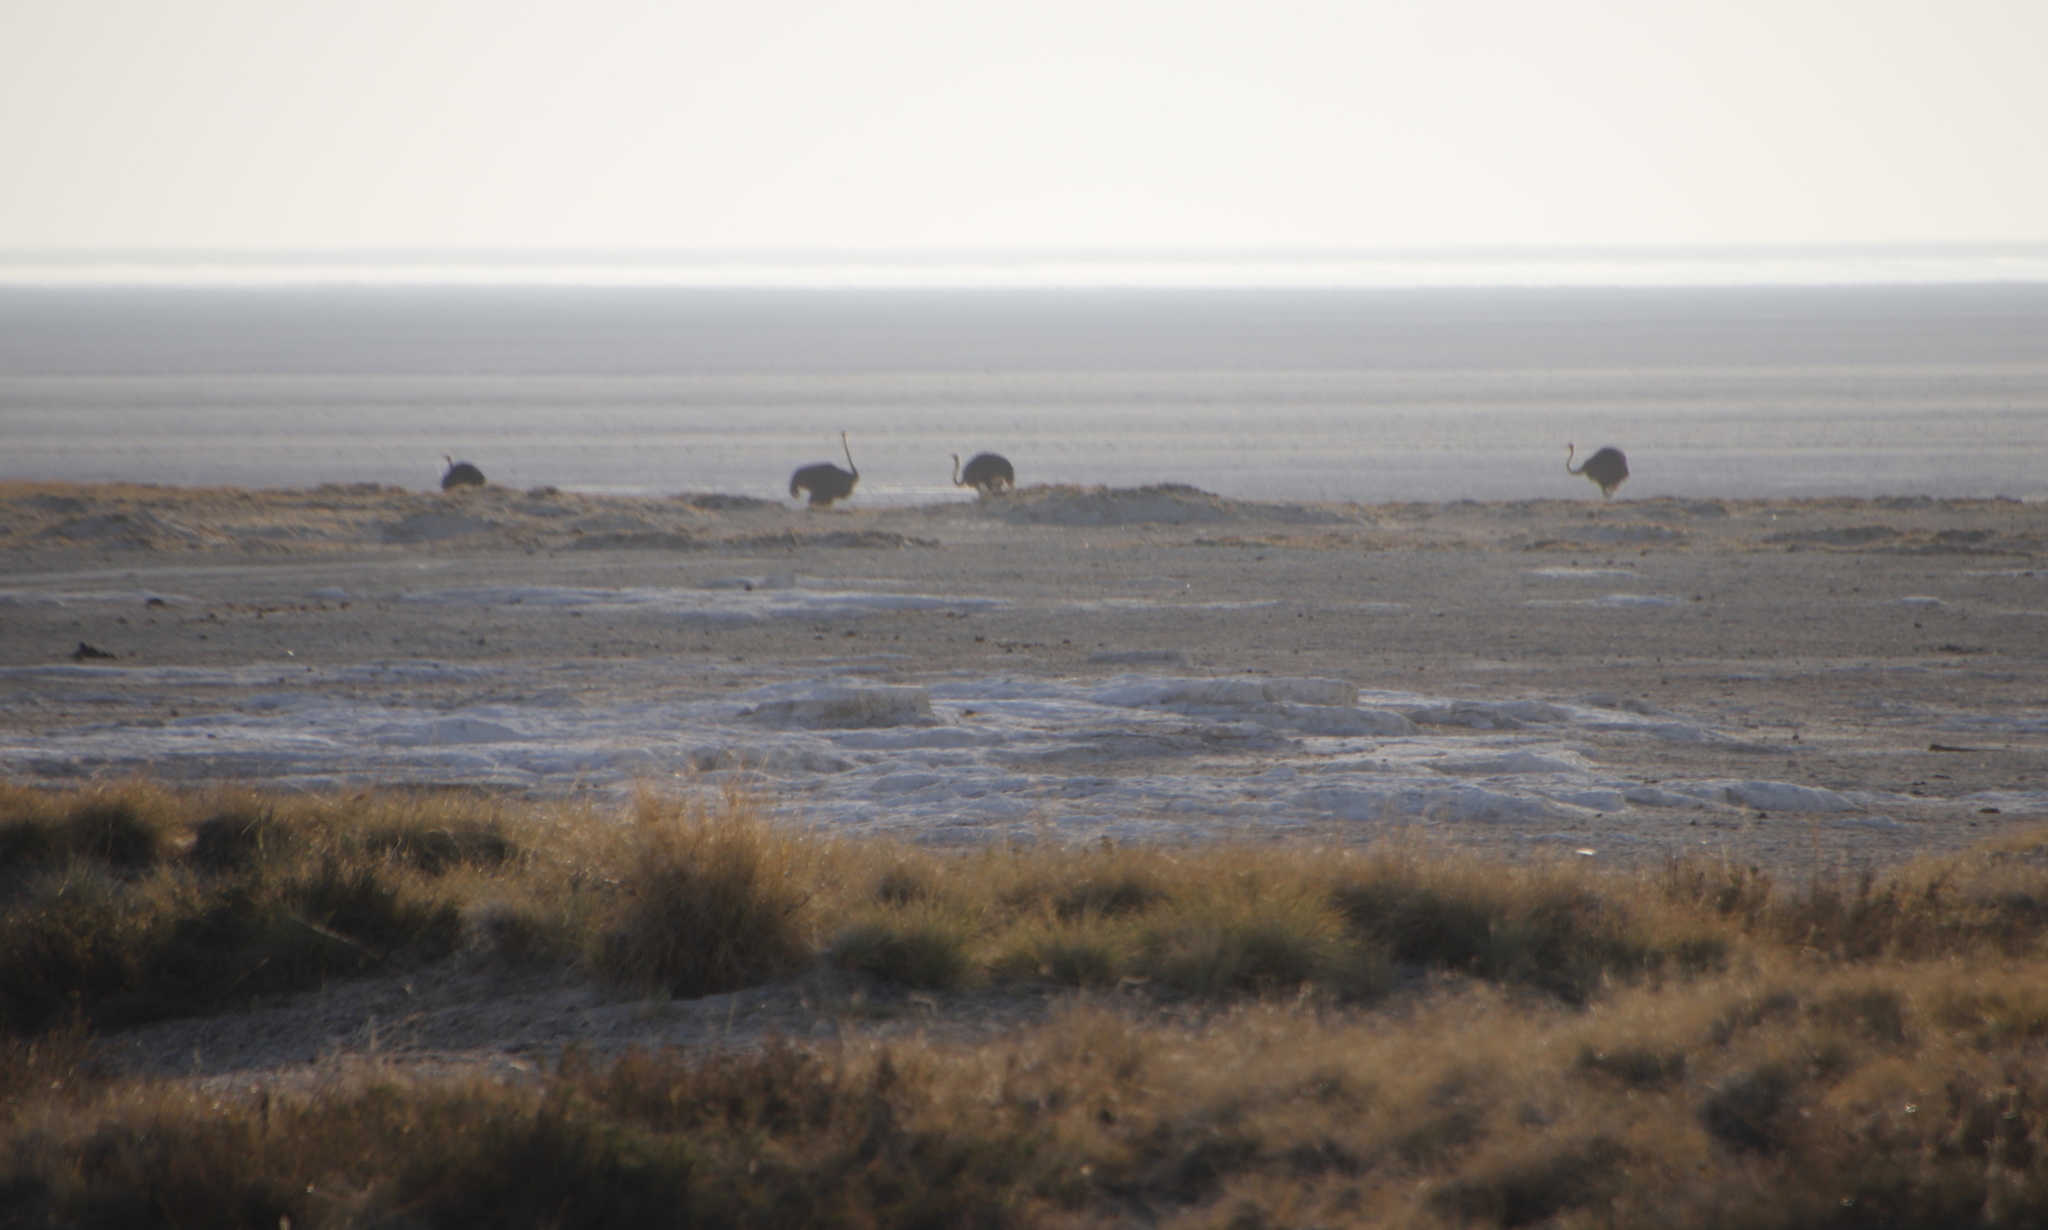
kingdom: Animalia
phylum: Chordata
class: Aves
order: Struthioniformes
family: Struthionidae
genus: Struthio
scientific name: Struthio camelus
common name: Common ostrich
